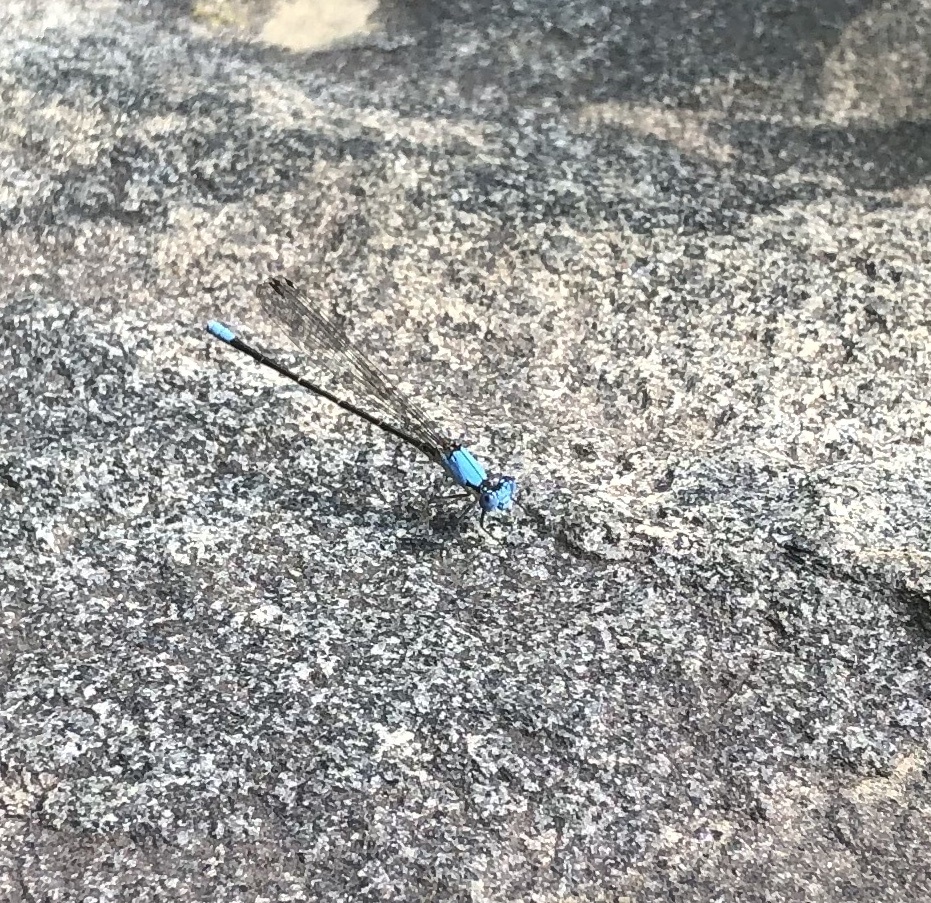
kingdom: Animalia
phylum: Arthropoda
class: Insecta
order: Odonata
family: Coenagrionidae
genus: Argia
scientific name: Argia apicalis
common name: Blue-fronted dancer
